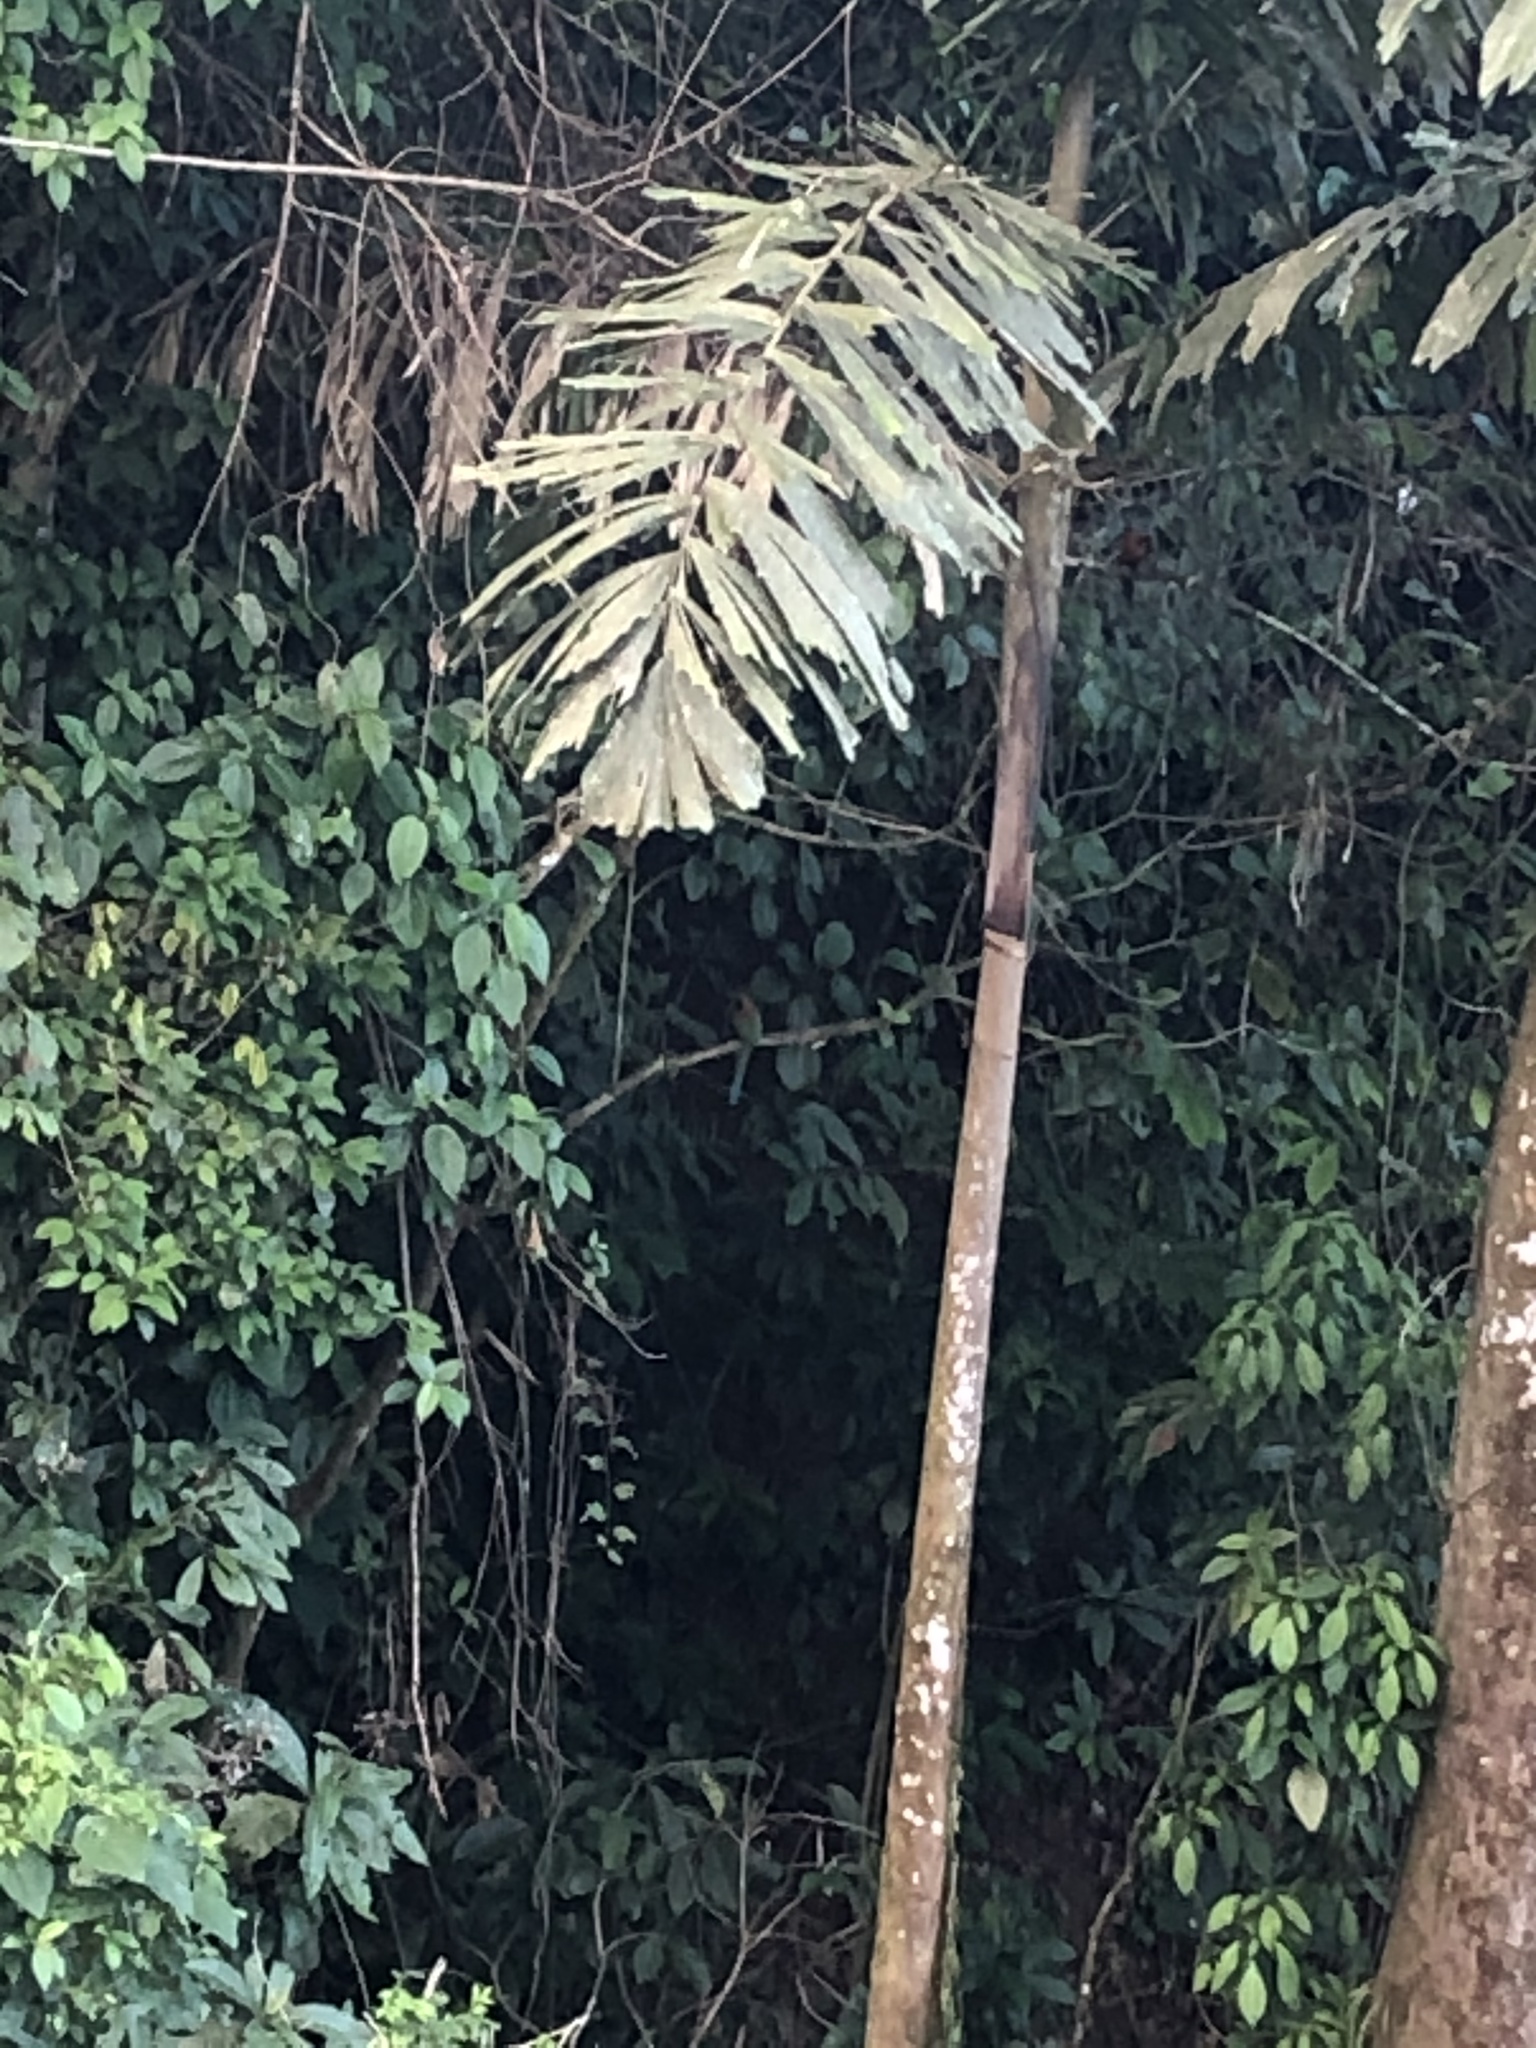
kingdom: Animalia
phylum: Chordata
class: Aves
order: Coraciiformes
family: Momotidae
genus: Baryphthengus
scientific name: Baryphthengus martii
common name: Rufous motmot
